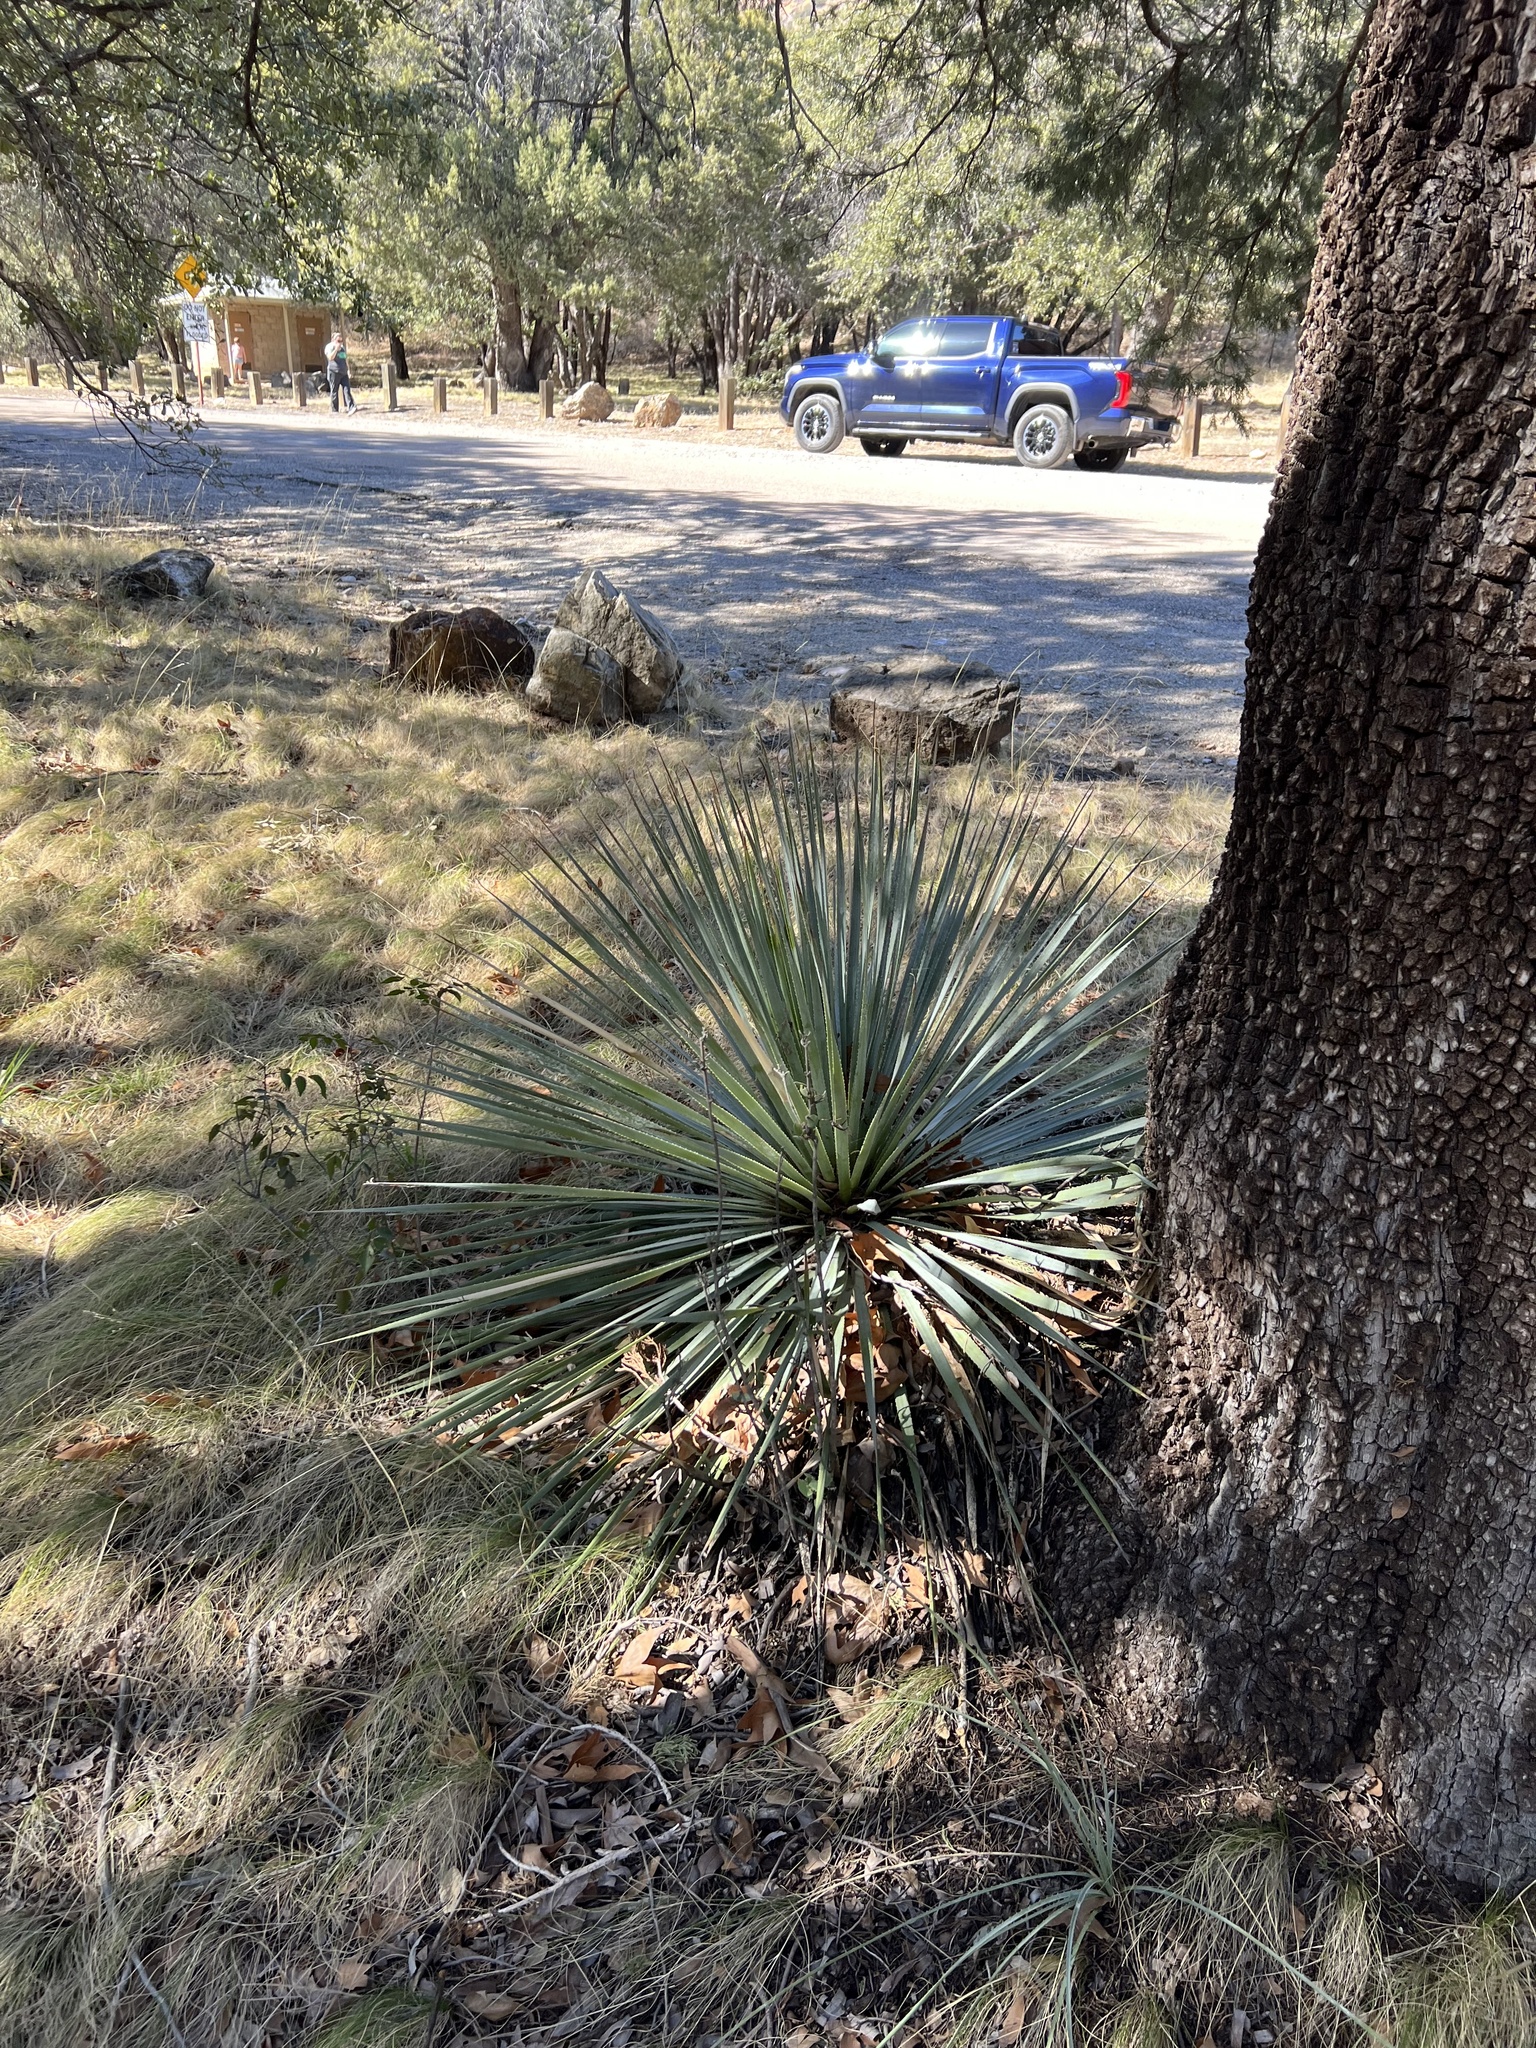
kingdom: Plantae
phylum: Tracheophyta
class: Liliopsida
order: Asparagales
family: Asparagaceae
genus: Dasylirion
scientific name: Dasylirion wheeleri
